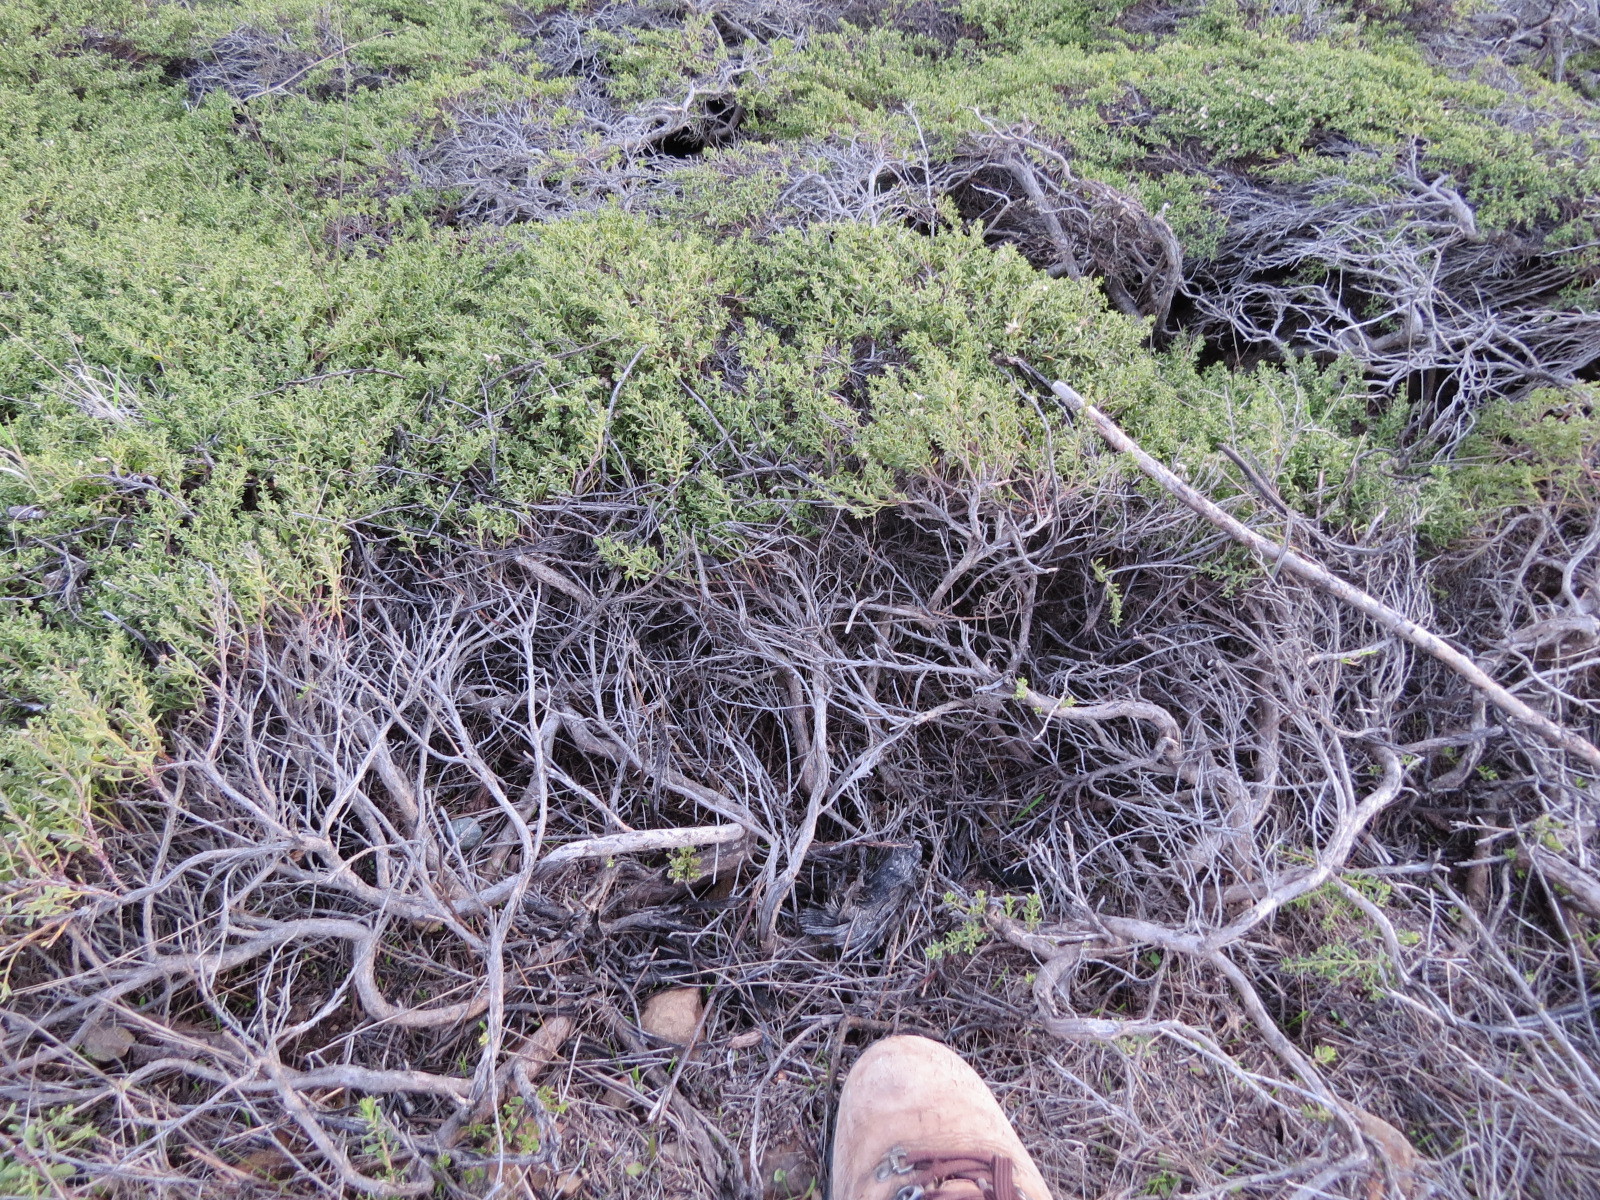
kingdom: Plantae
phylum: Tracheophyta
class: Magnoliopsida
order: Asterales
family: Asteraceae
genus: Baccharis
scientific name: Baccharis pilularis
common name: Coyotebrush
